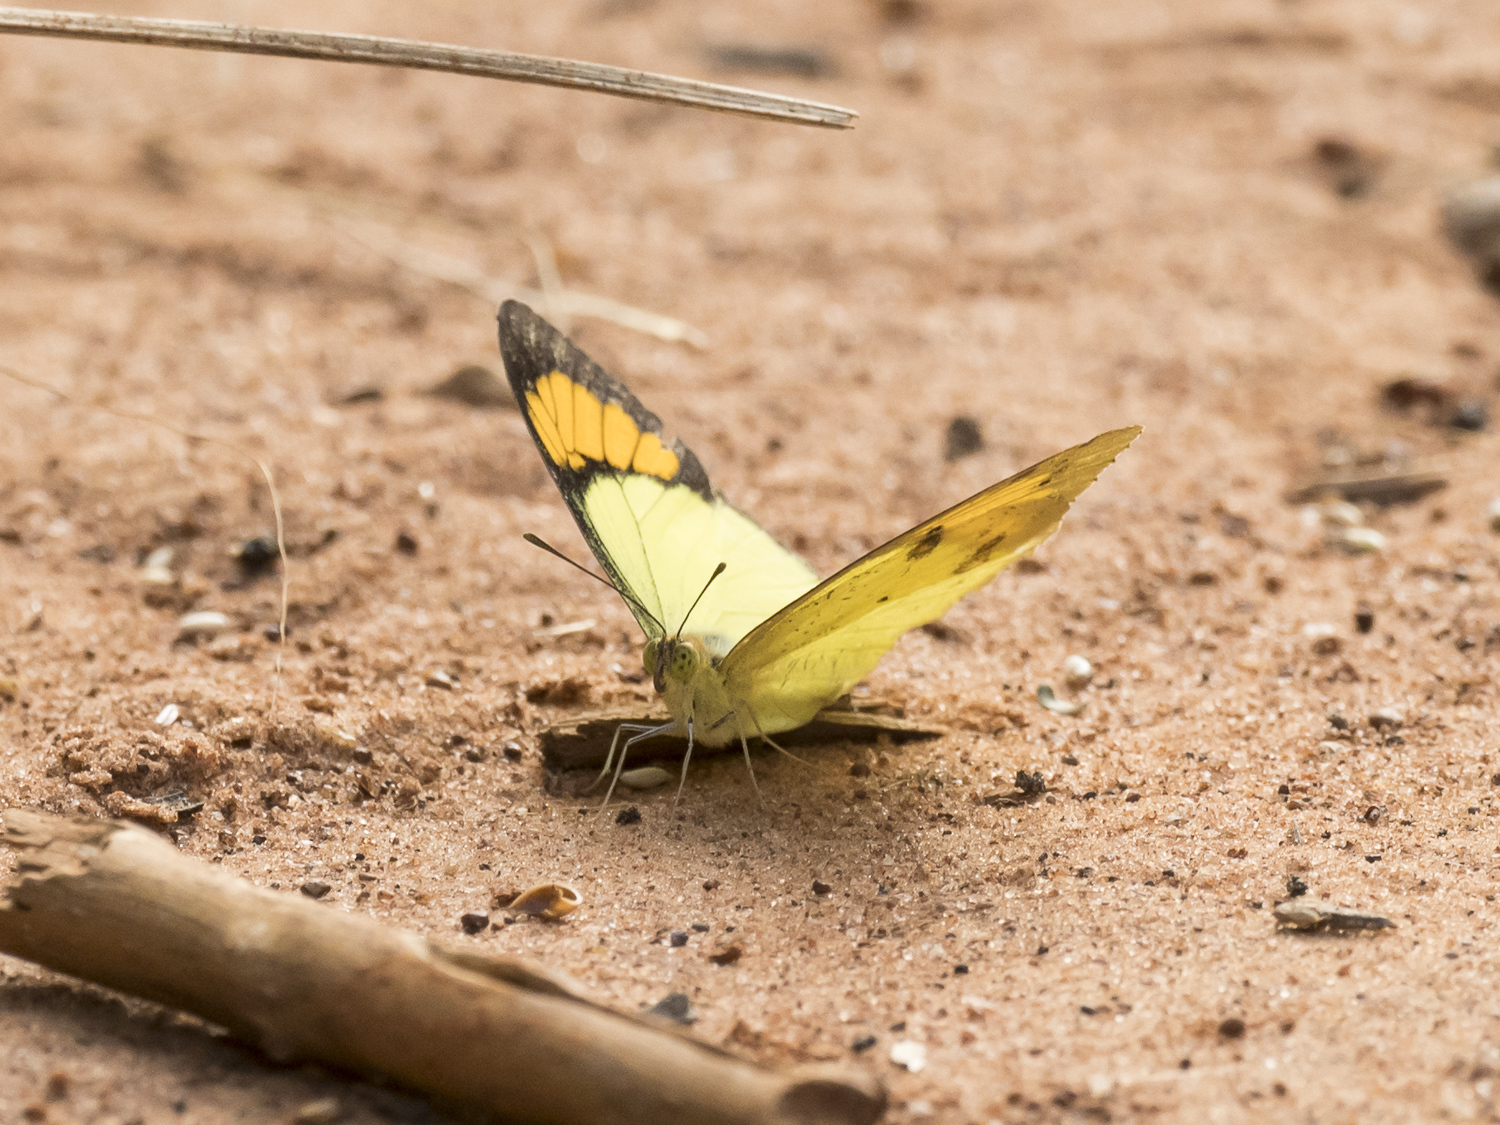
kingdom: Animalia
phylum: Arthropoda
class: Insecta
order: Lepidoptera
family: Pieridae
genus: Ixias
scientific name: Ixias pyrene
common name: Yellow orange tip
